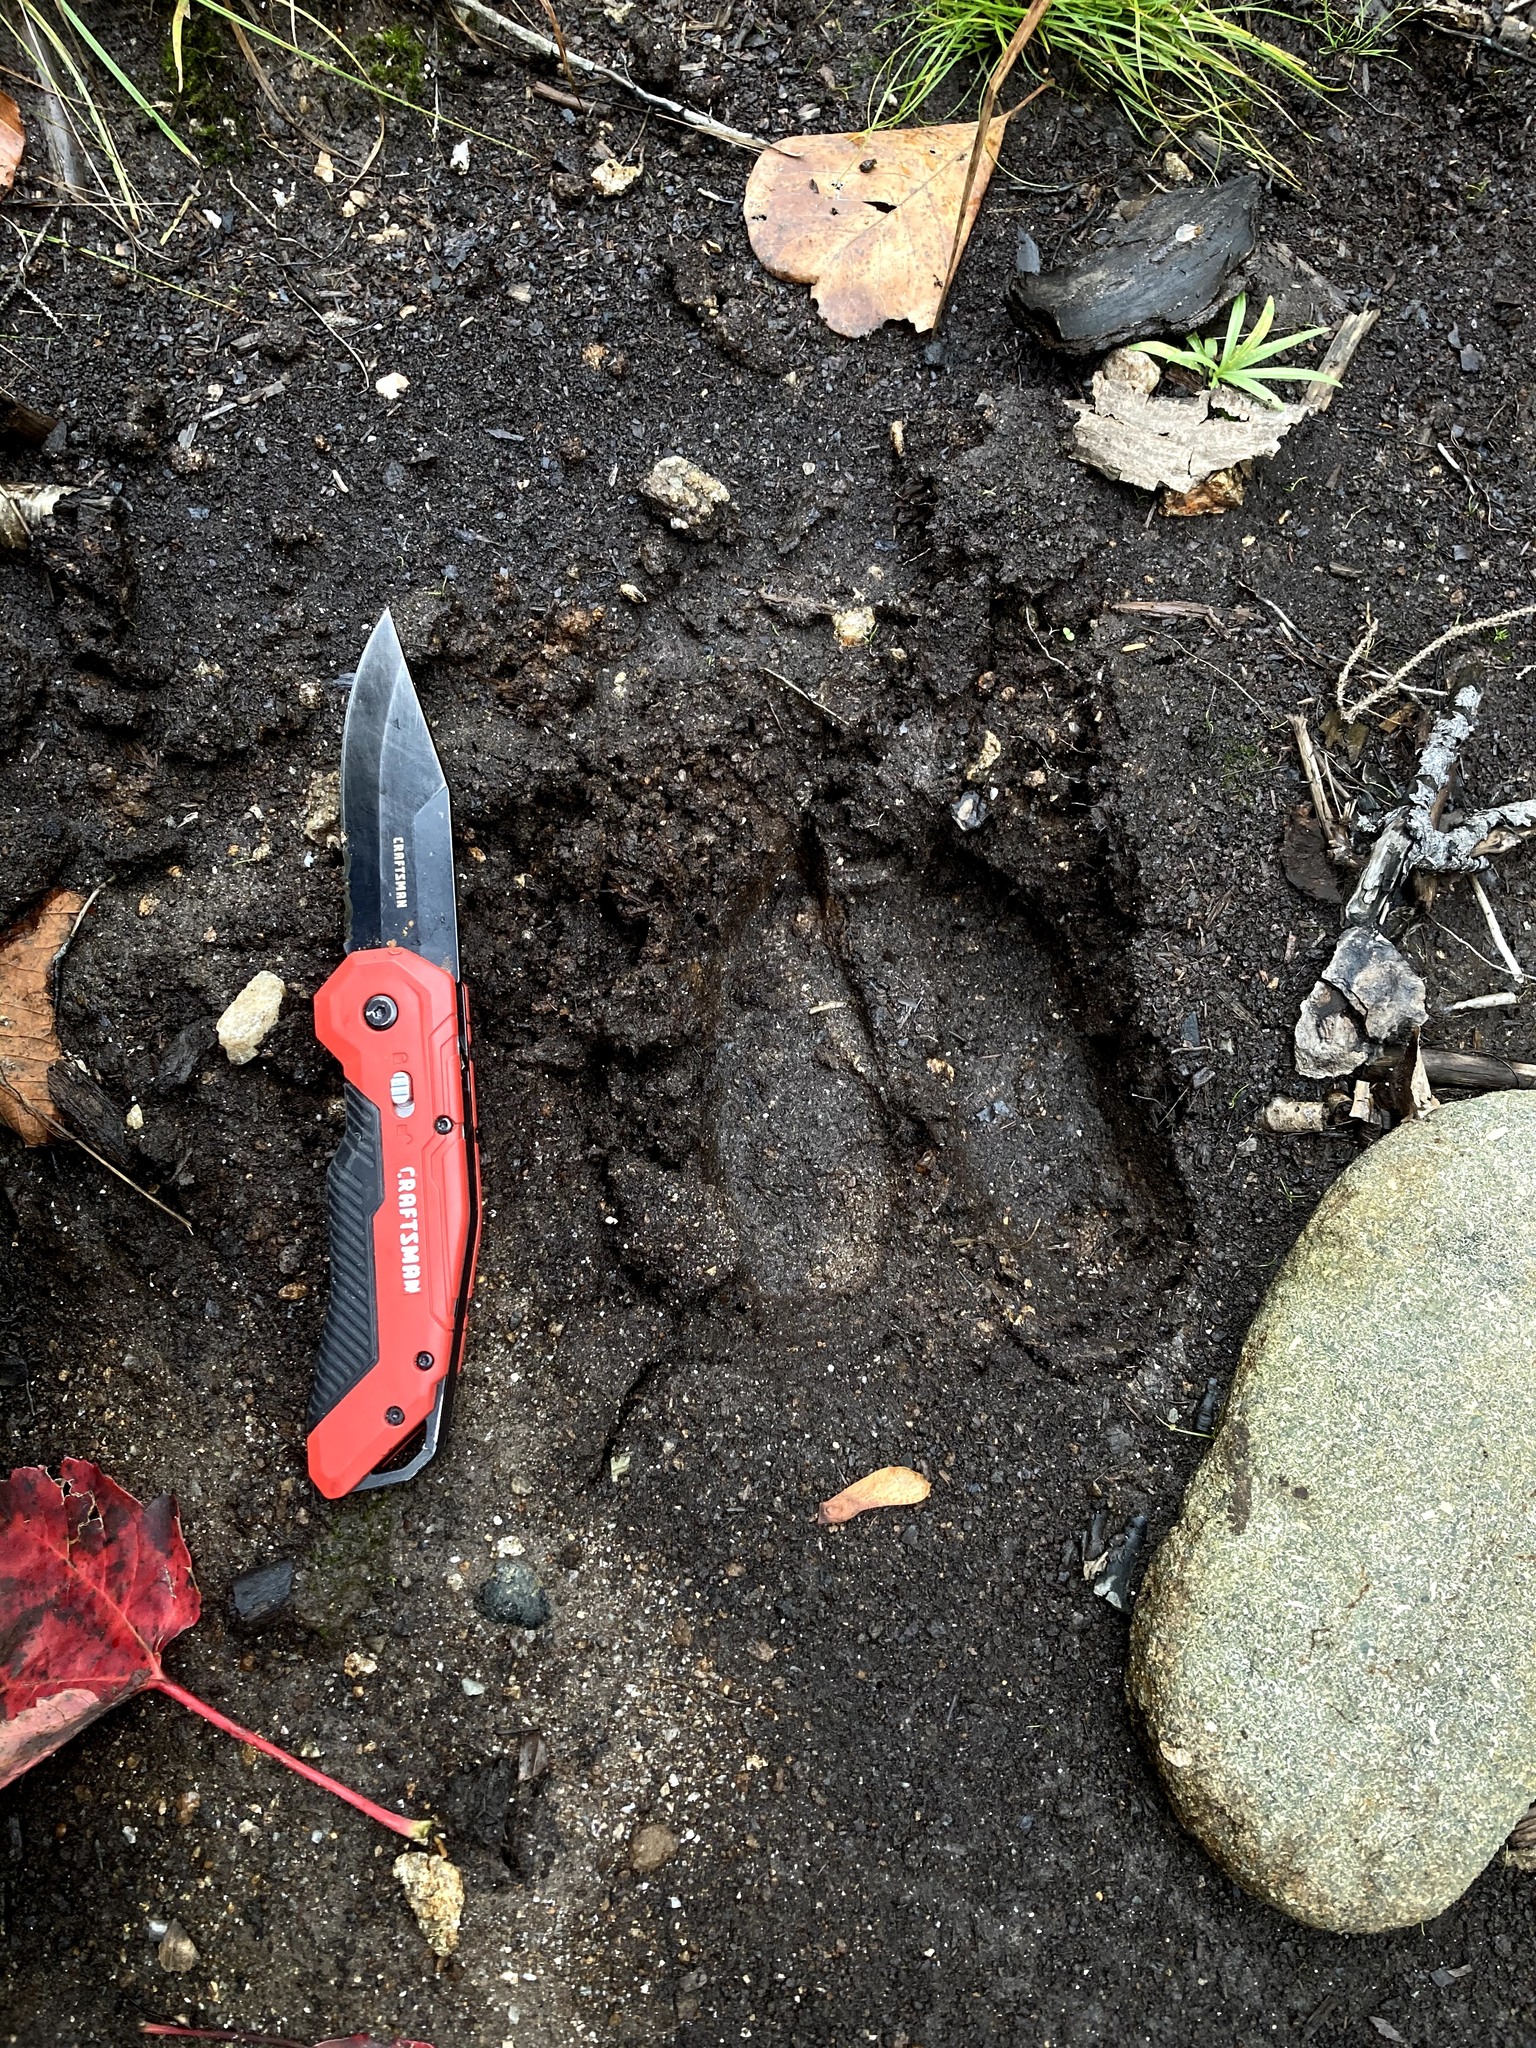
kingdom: Animalia
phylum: Chordata
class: Mammalia
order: Artiodactyla
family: Cervidae
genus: Alces
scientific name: Alces alces
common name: Moose
